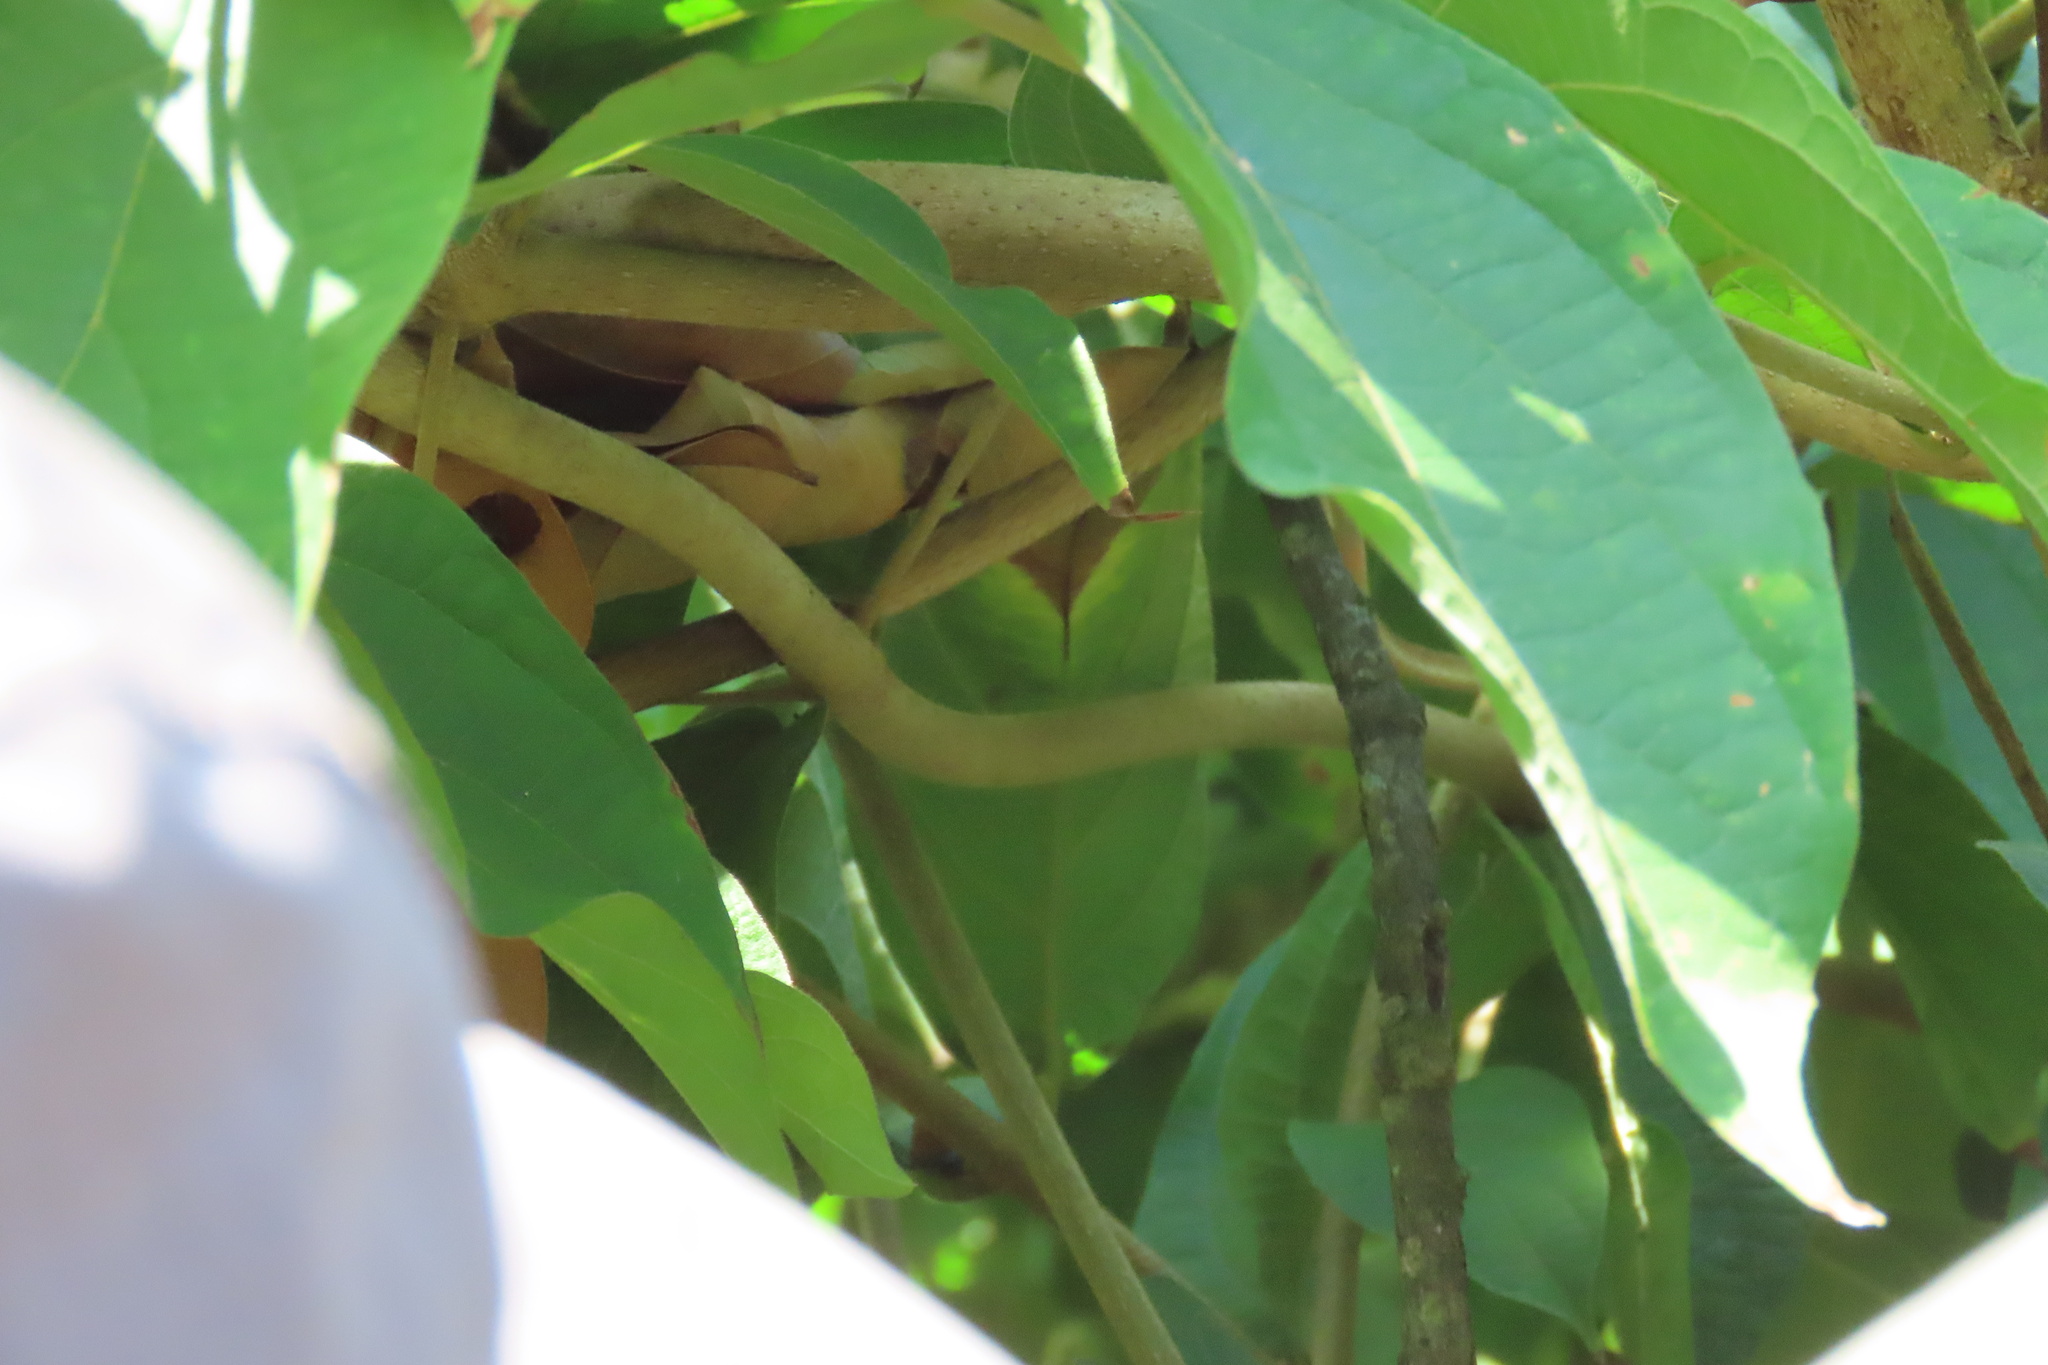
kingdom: Animalia
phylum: Chordata
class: Squamata
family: Colubridae
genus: Oxybelis
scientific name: Oxybelis koehleri
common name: Köhler’s vine snake
